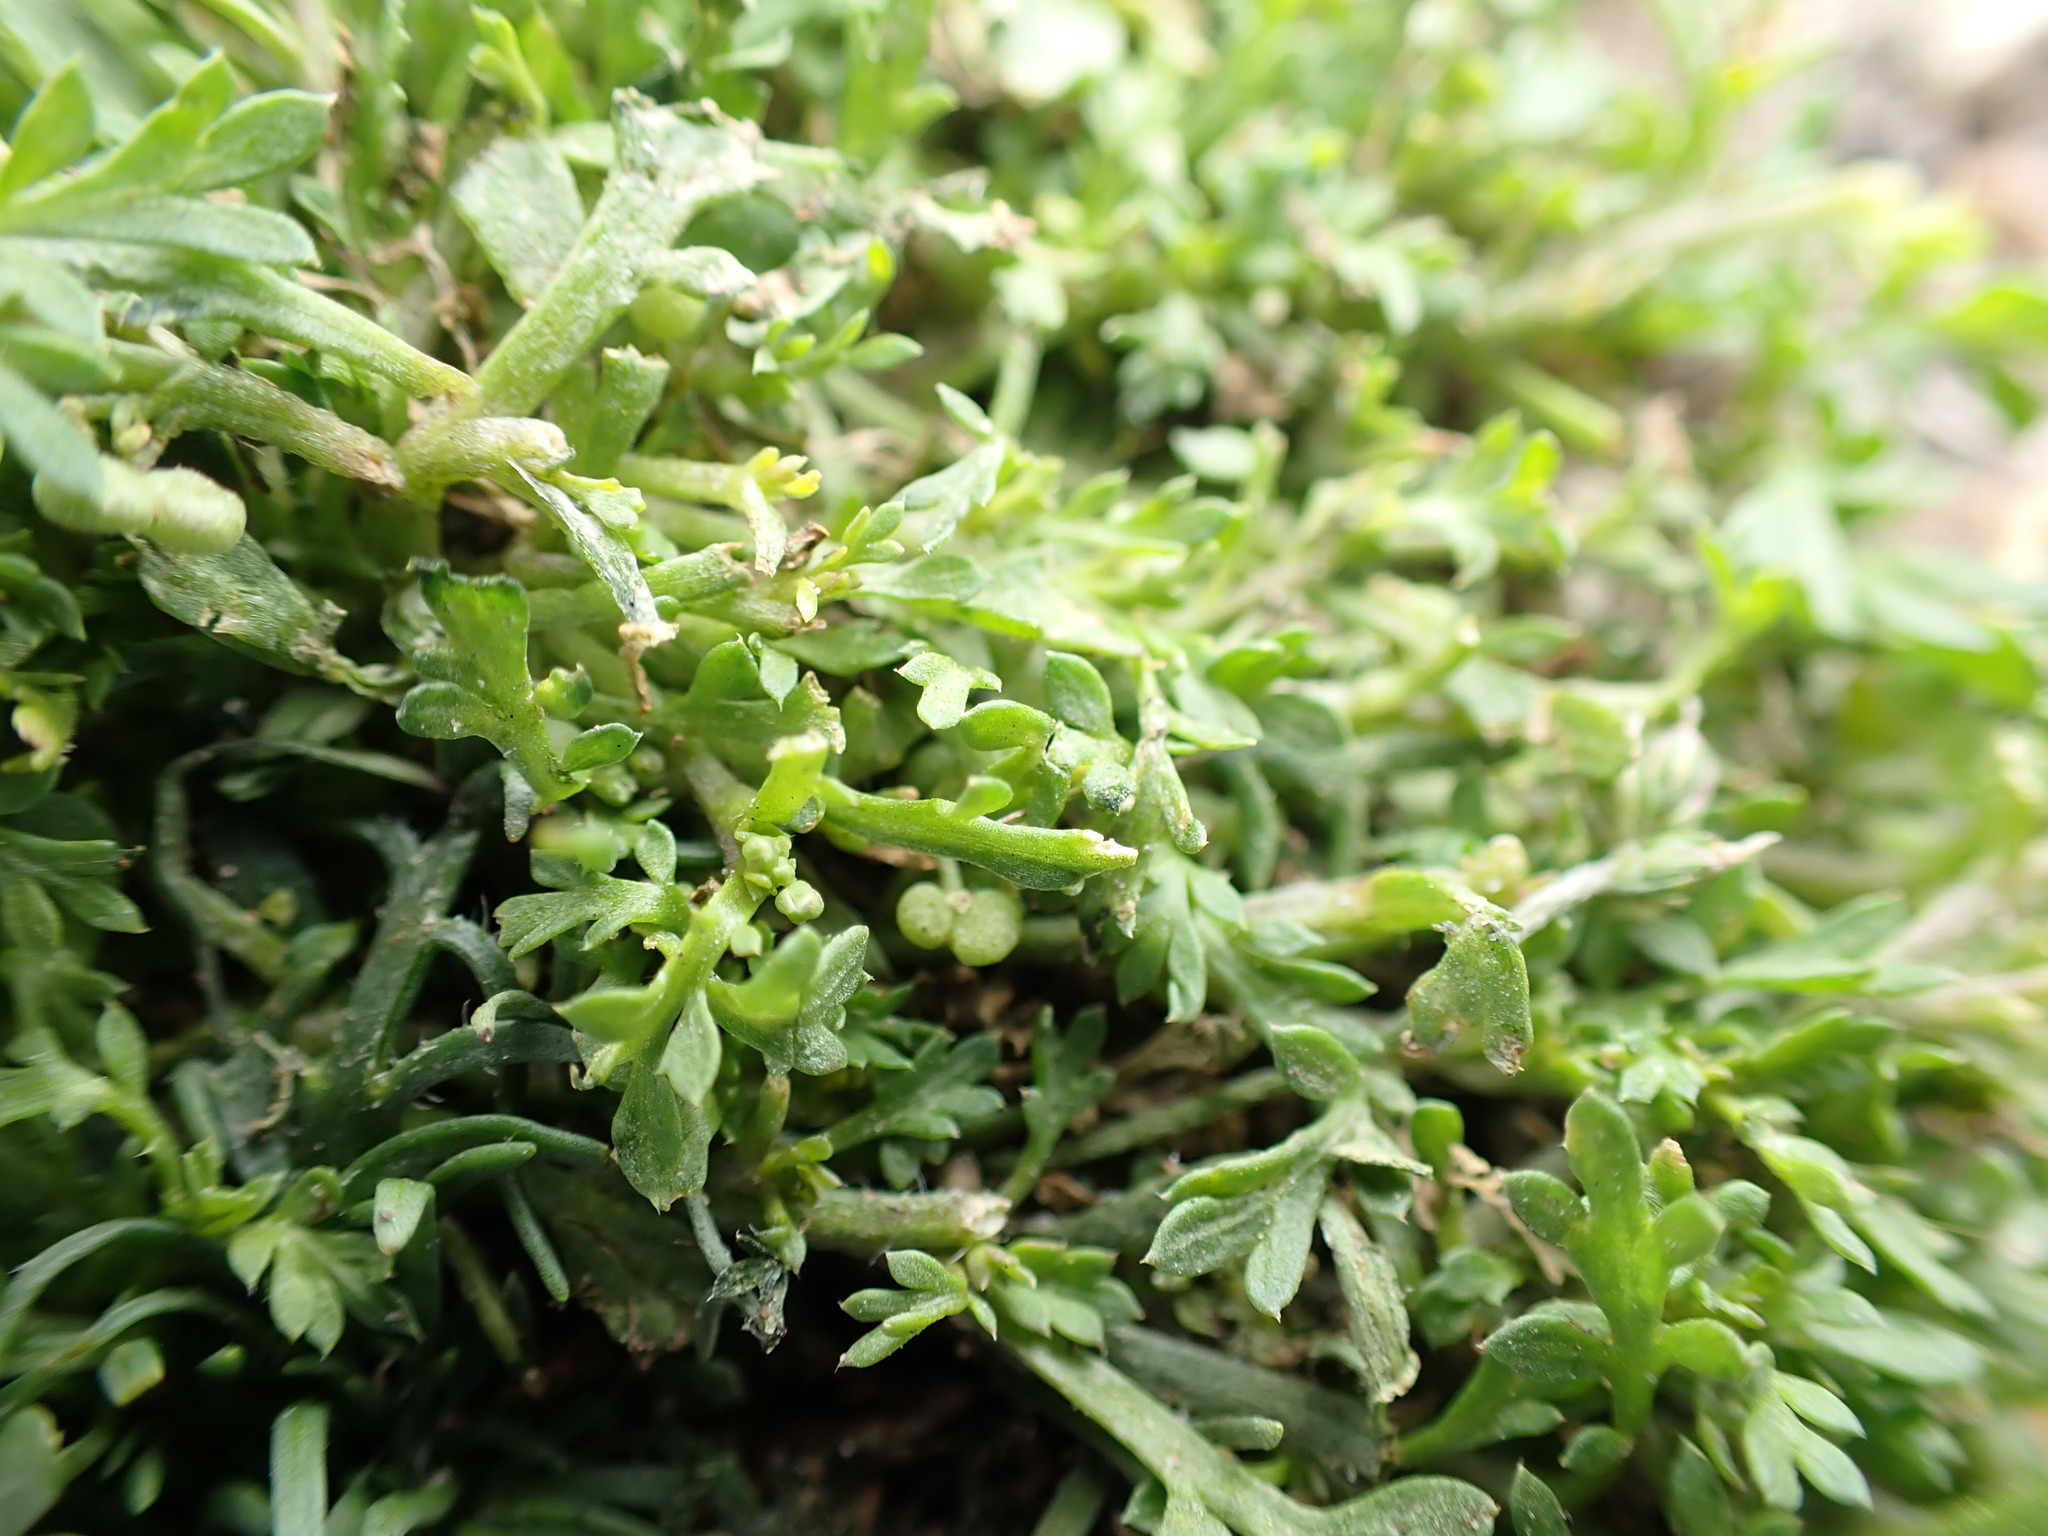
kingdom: Plantae
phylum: Tracheophyta
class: Magnoliopsida
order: Brassicales
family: Brassicaceae
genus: Lepidium
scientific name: Lepidium didymum
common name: Lesser swinecress
